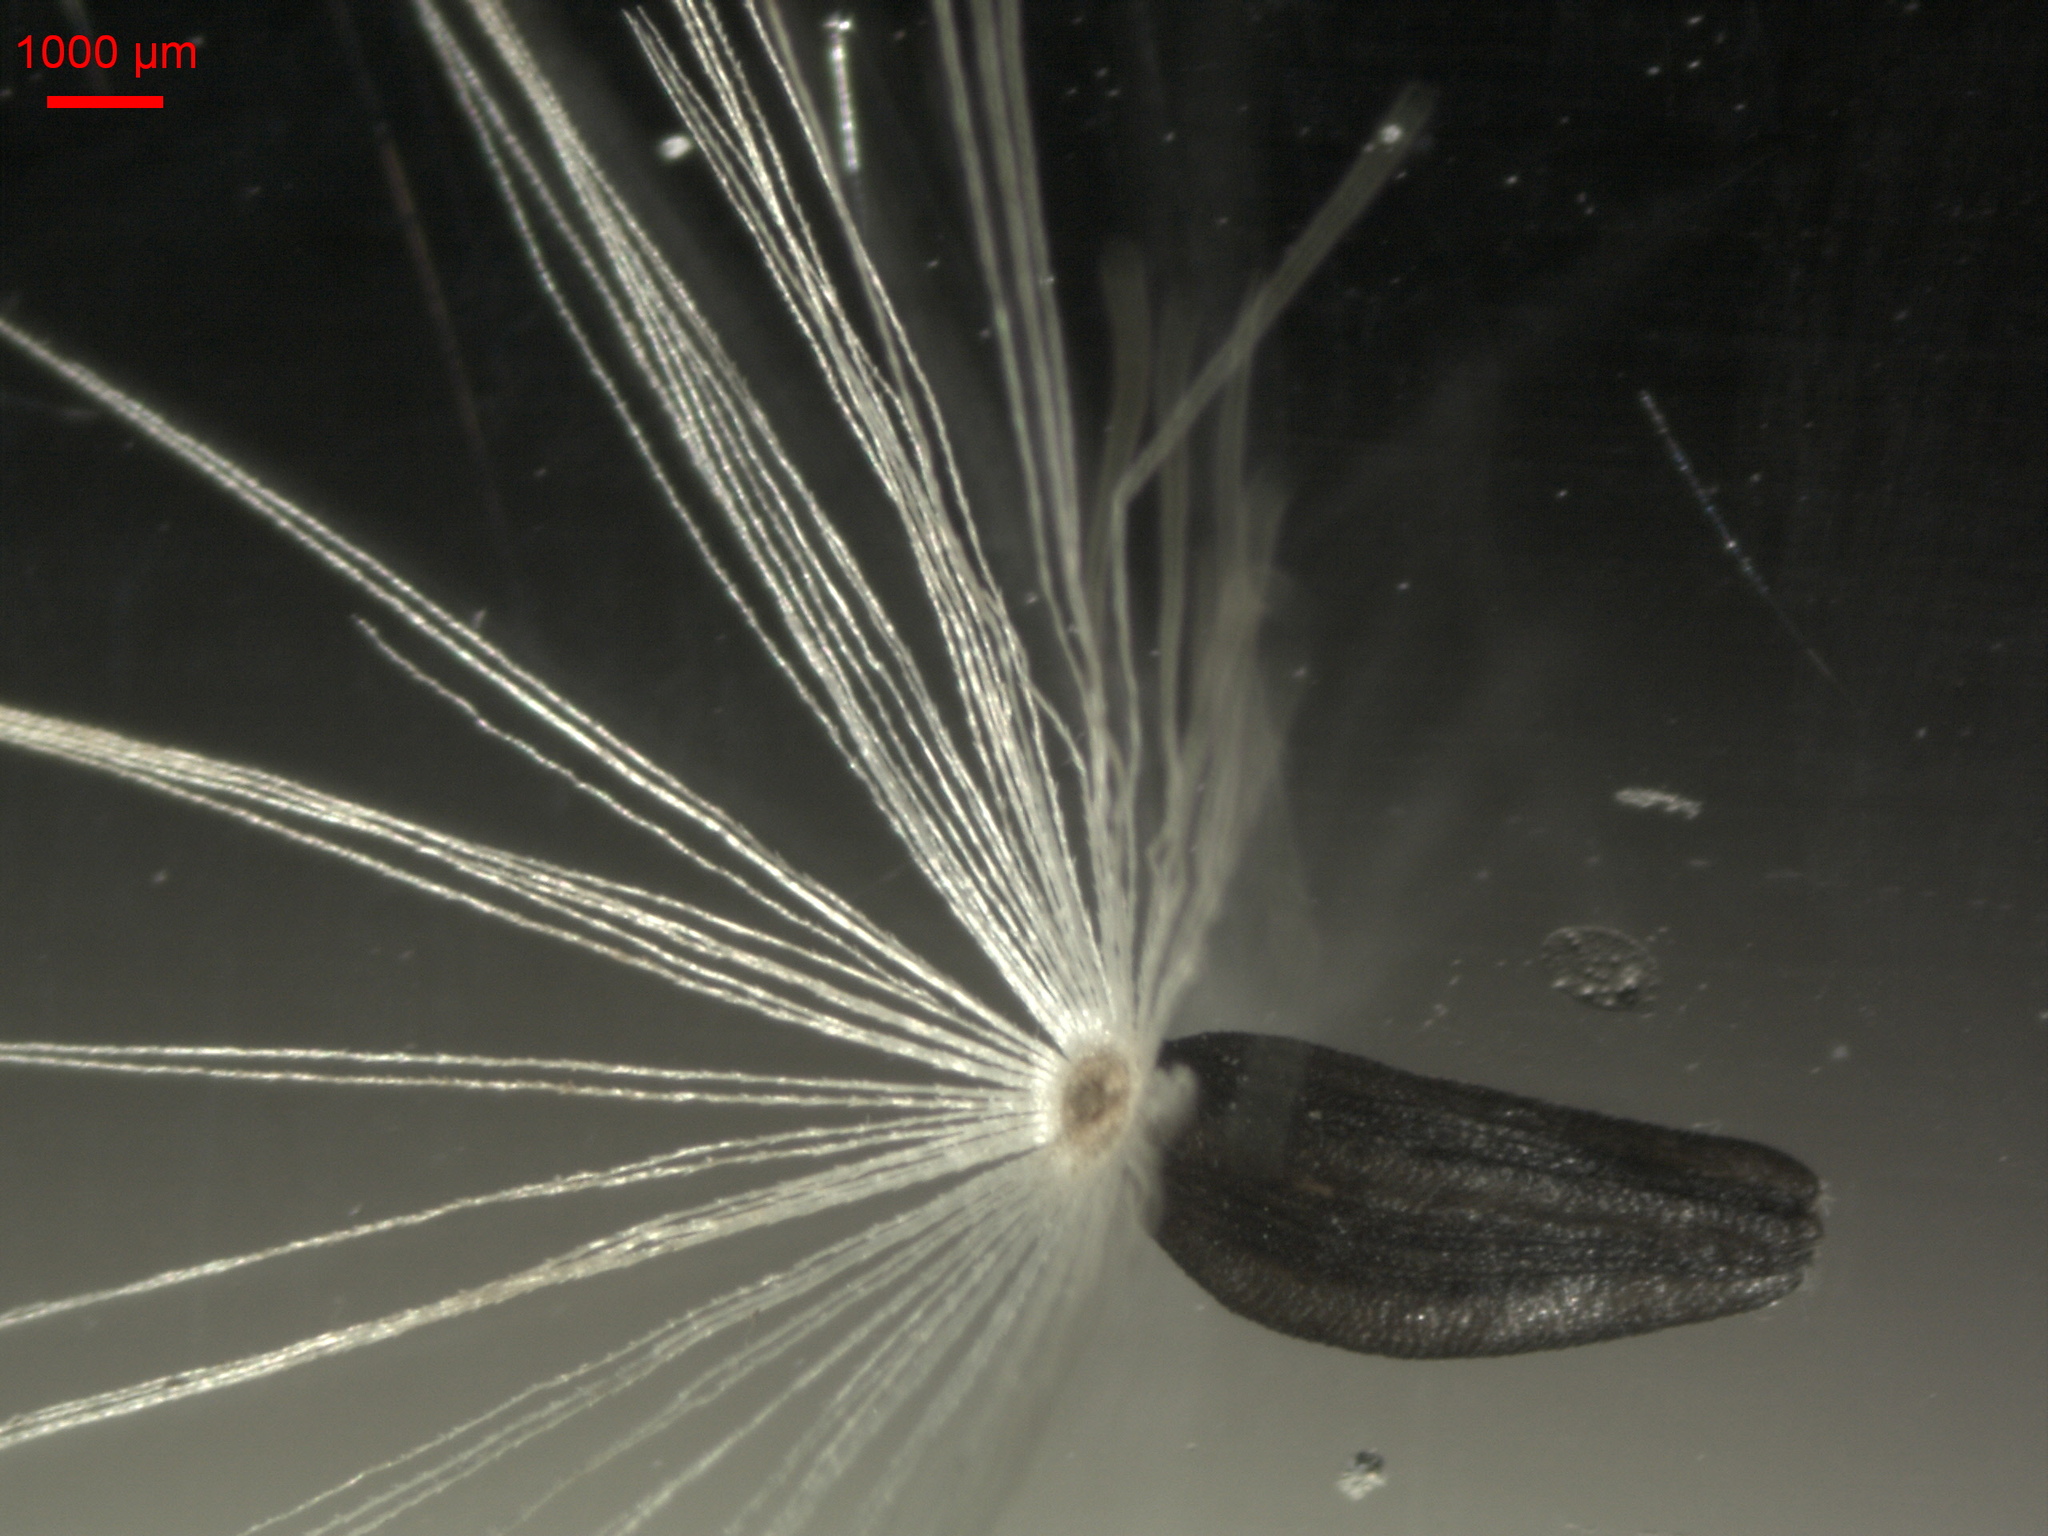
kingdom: Plantae
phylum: Tracheophyta
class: Magnoliopsida
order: Asterales
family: Asteraceae
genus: Lactuca
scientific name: Lactuca sibirica
